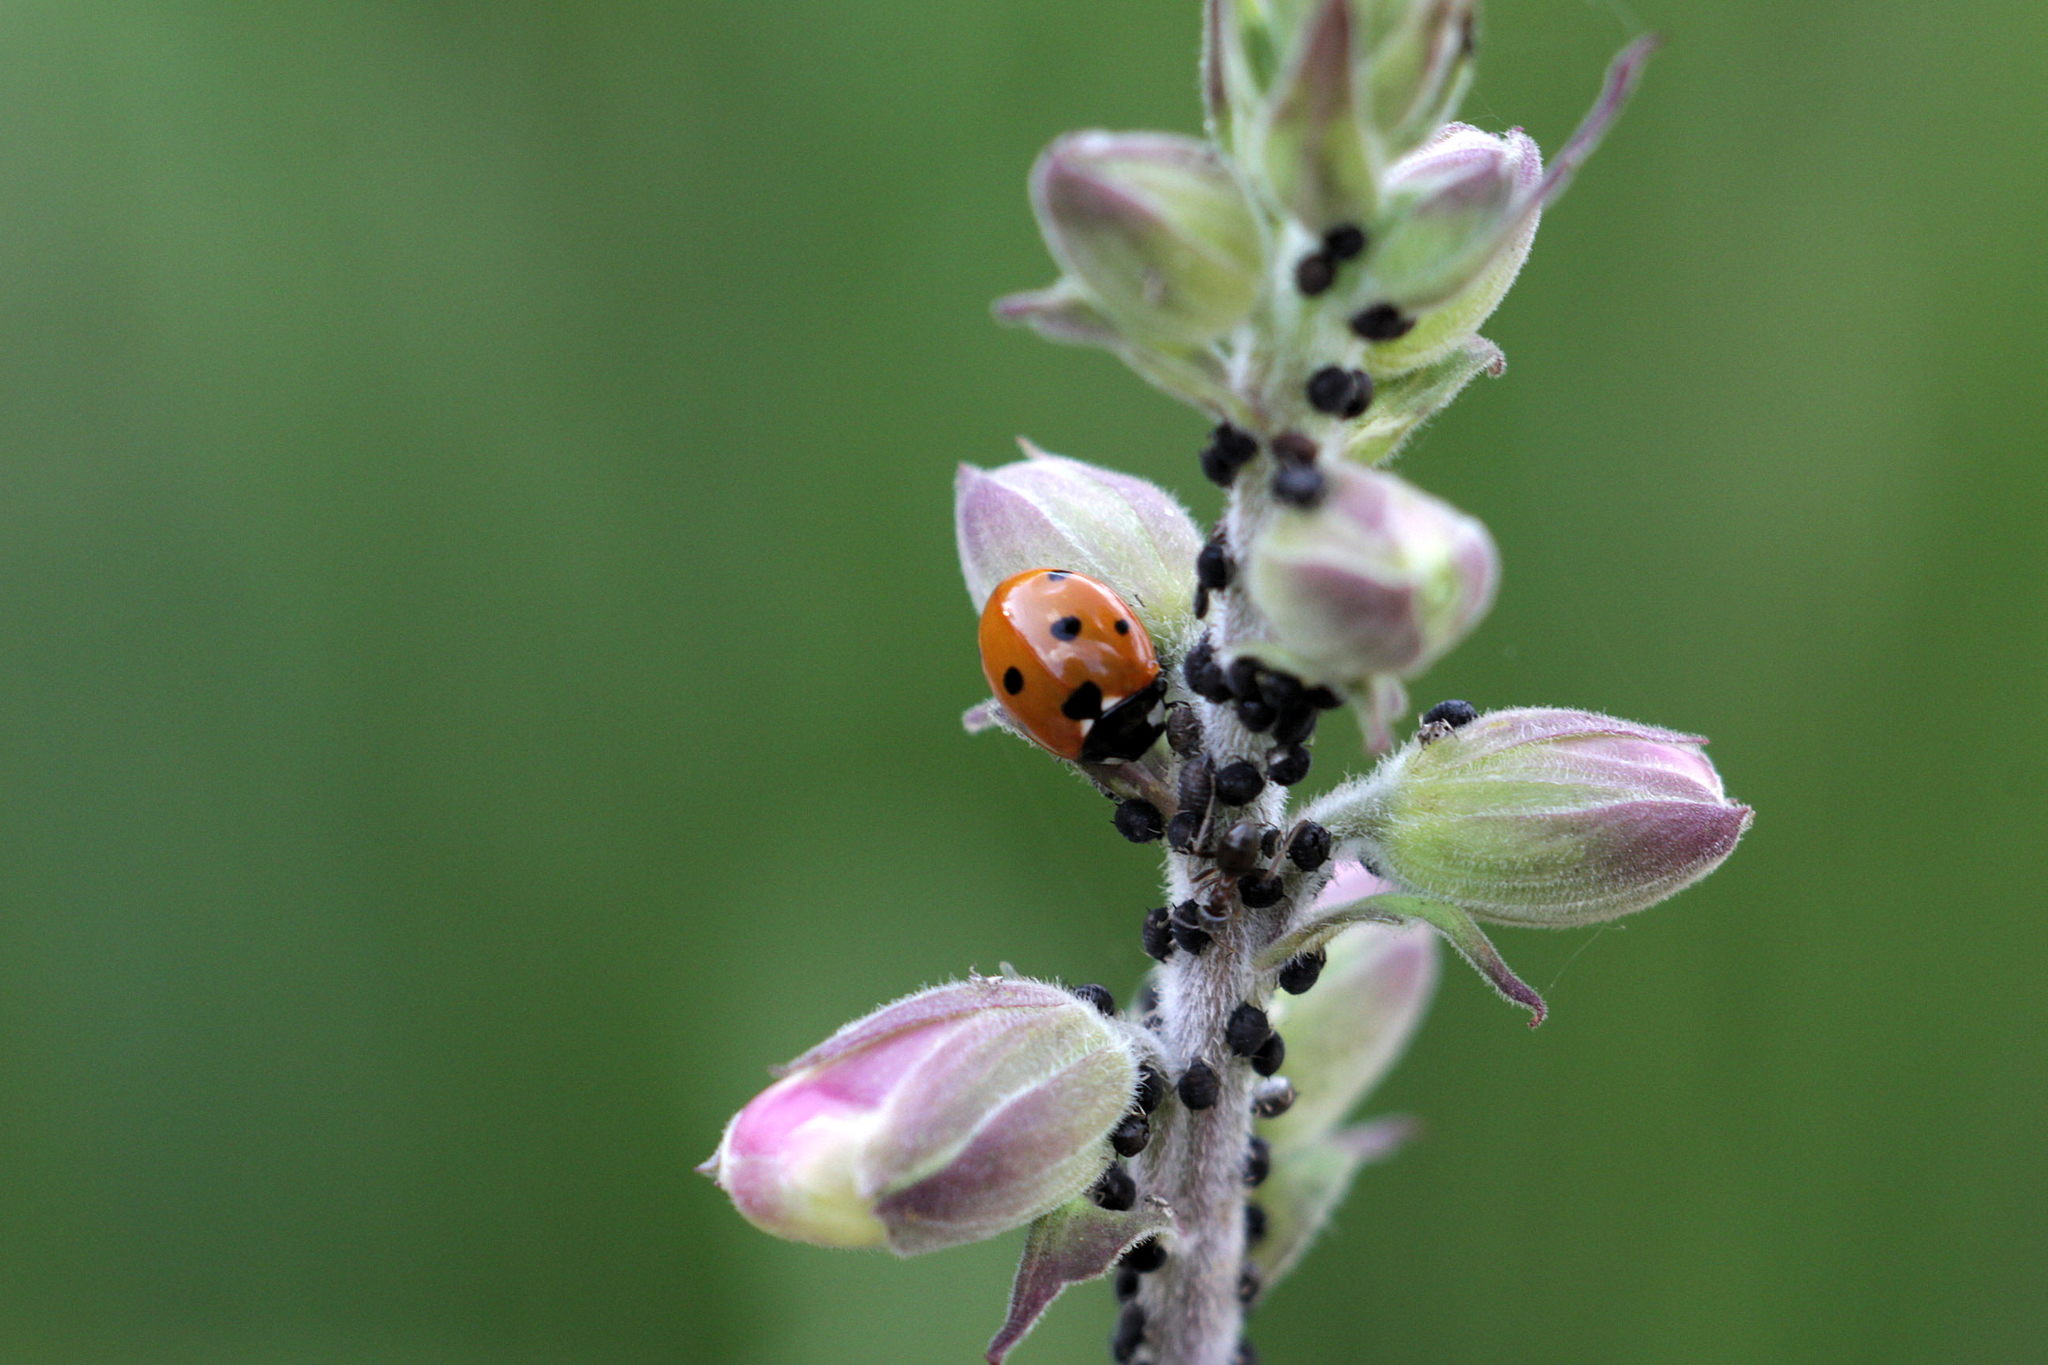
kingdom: Animalia
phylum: Arthropoda
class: Insecta
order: Coleoptera
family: Coccinellidae
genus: Coccinella
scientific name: Coccinella septempunctata
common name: Sevenspotted lady beetle
